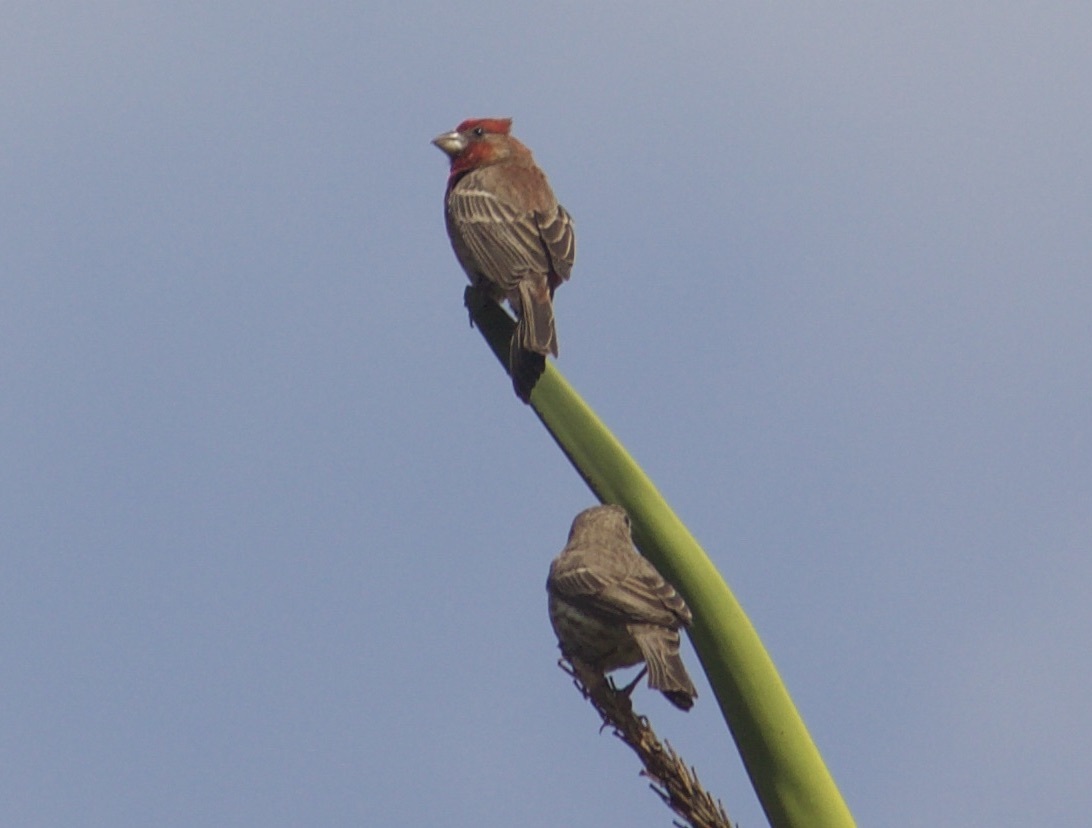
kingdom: Animalia
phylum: Chordata
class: Aves
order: Passeriformes
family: Fringillidae
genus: Haemorhous
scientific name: Haemorhous mexicanus
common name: House finch
